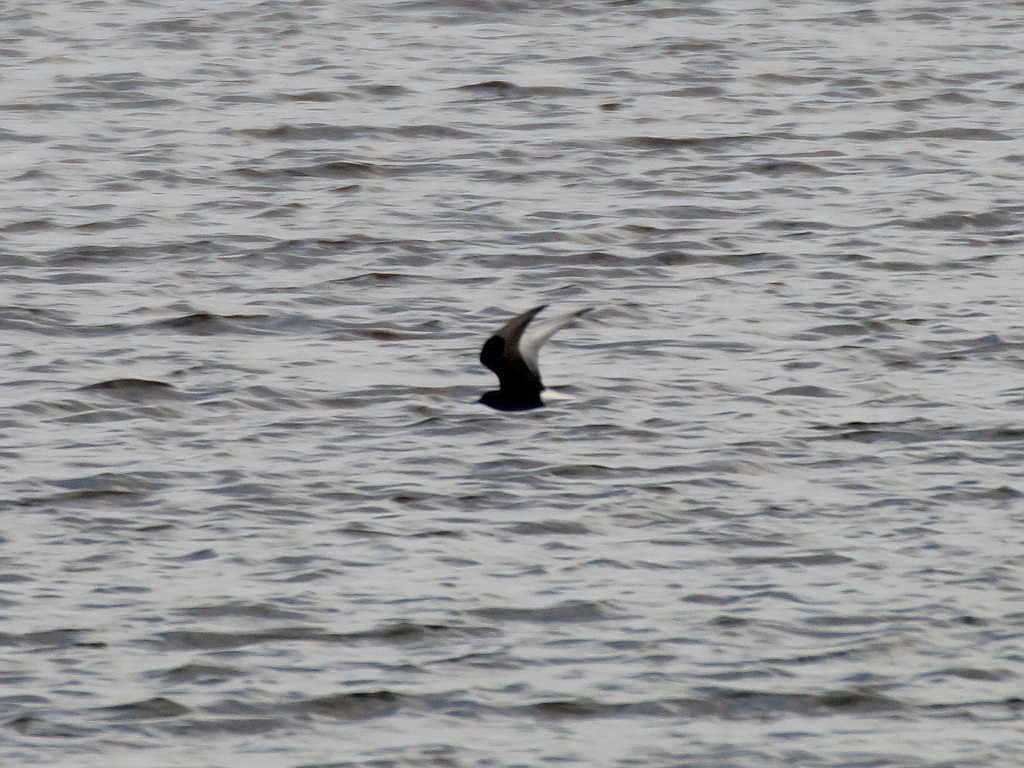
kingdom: Animalia
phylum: Chordata
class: Aves
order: Charadriiformes
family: Laridae
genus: Chlidonias
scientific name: Chlidonias leucopterus
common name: White-winged tern
